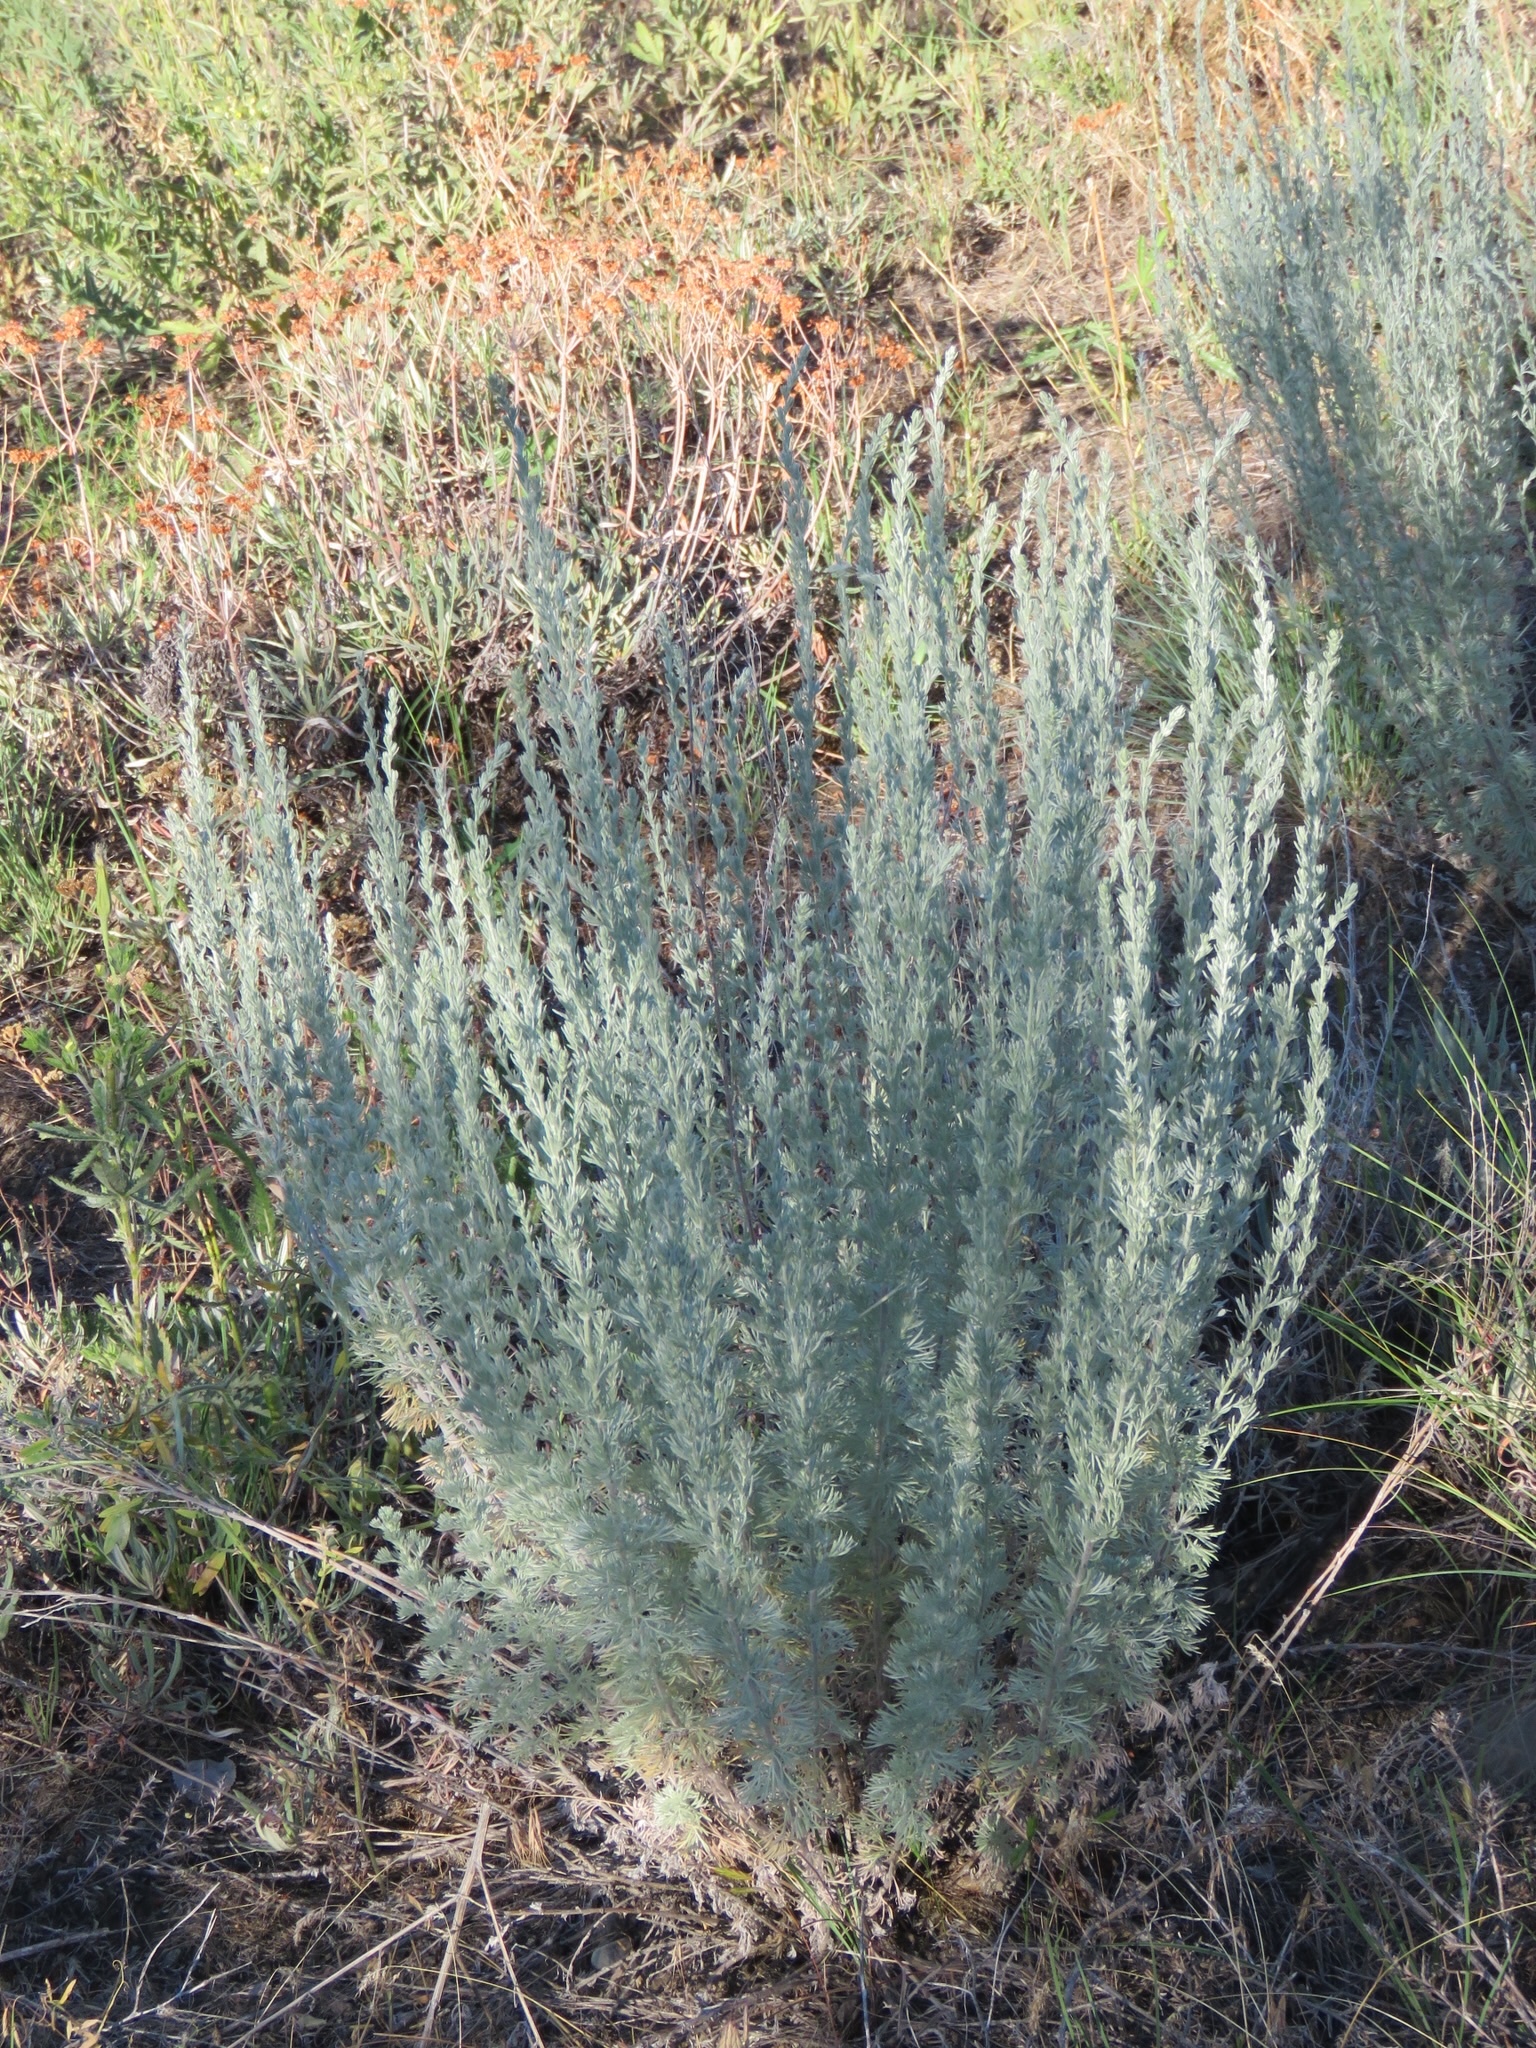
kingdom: Plantae
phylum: Tracheophyta
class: Magnoliopsida
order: Asterales
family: Asteraceae
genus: Artemisia
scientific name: Artemisia frigida
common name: Prairie sagewort
